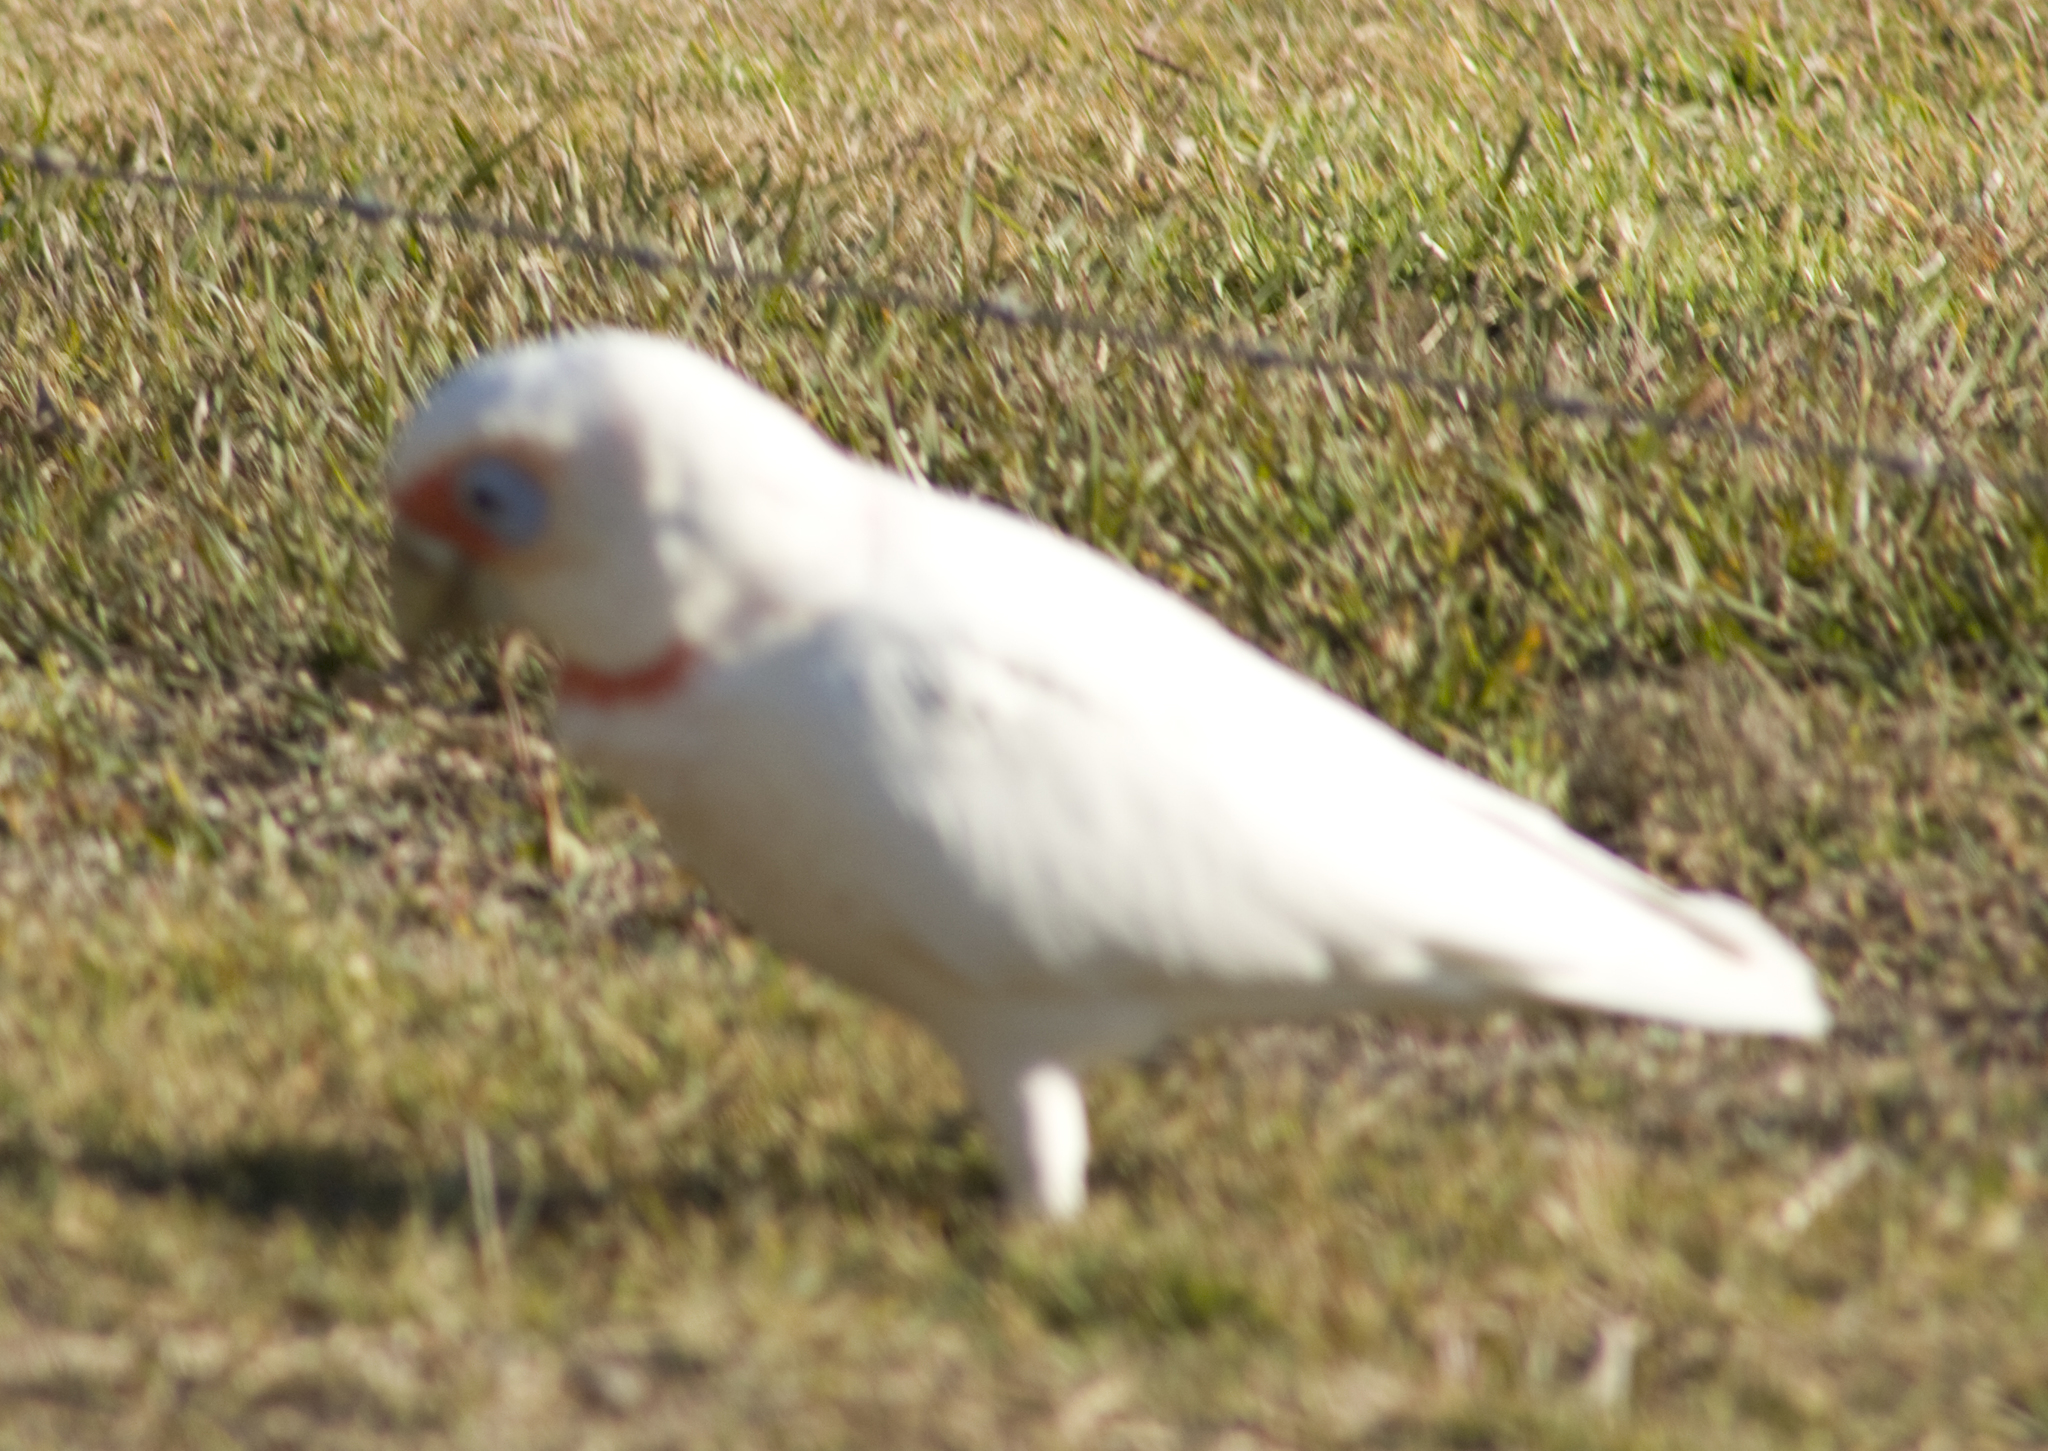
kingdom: Animalia
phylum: Chordata
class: Aves
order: Psittaciformes
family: Psittacidae
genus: Cacatua
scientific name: Cacatua tenuirostris
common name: Long-billed corella
